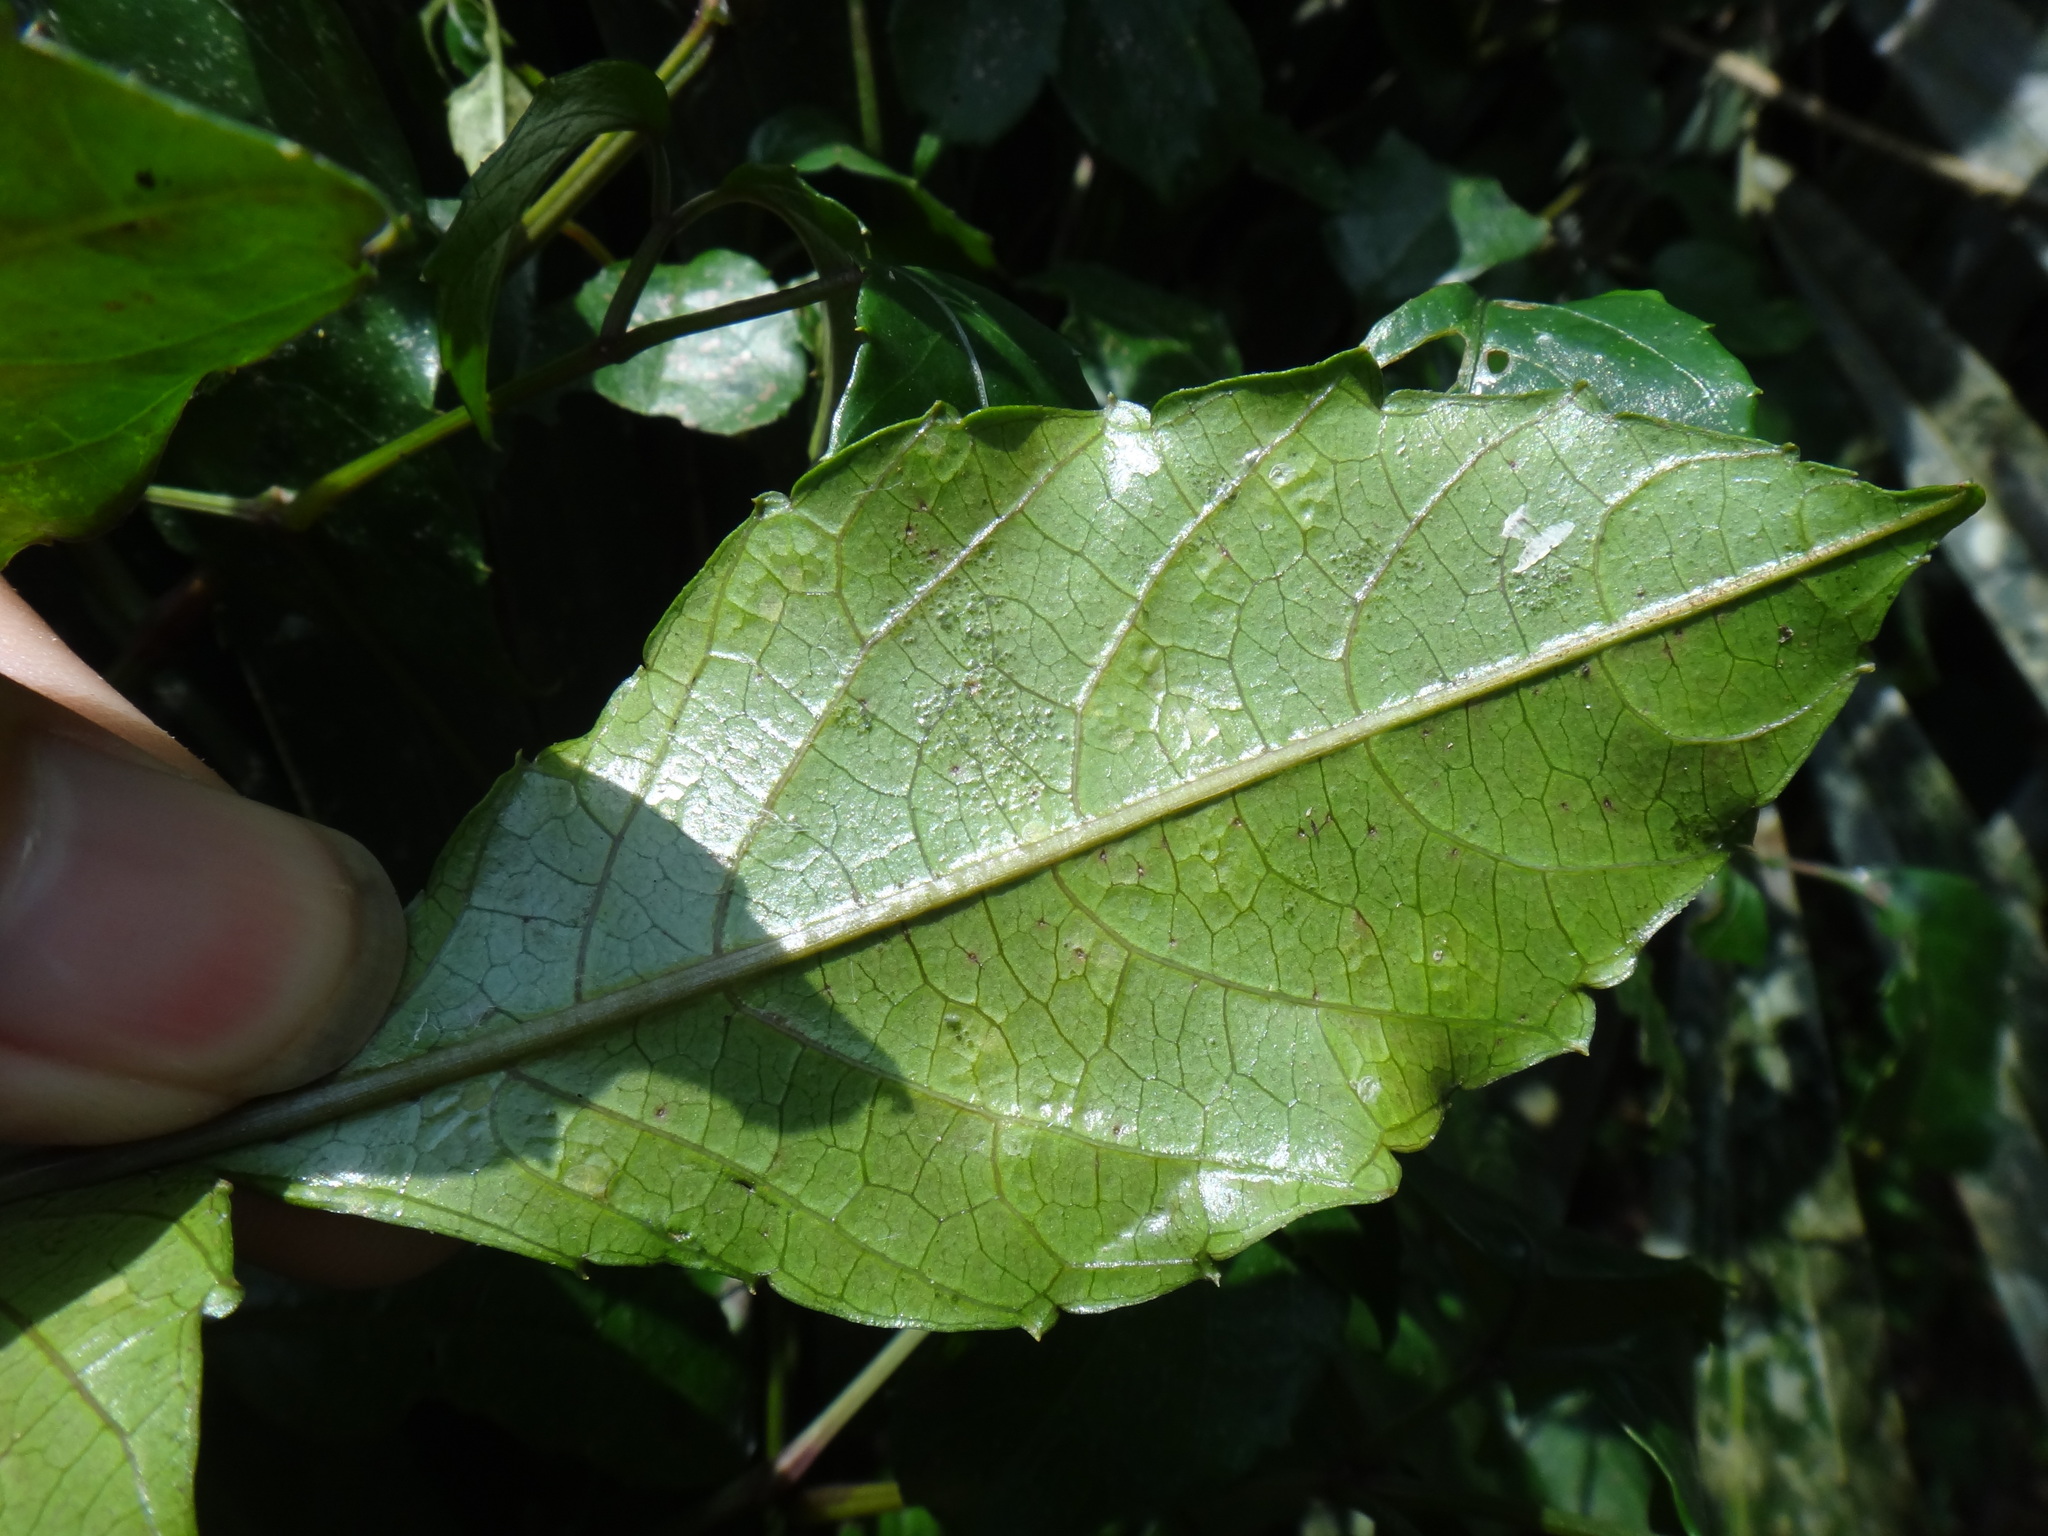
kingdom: Plantae
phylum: Tracheophyta
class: Magnoliopsida
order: Vitales
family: Vitaceae
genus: Causonis
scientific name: Causonis corniculata
